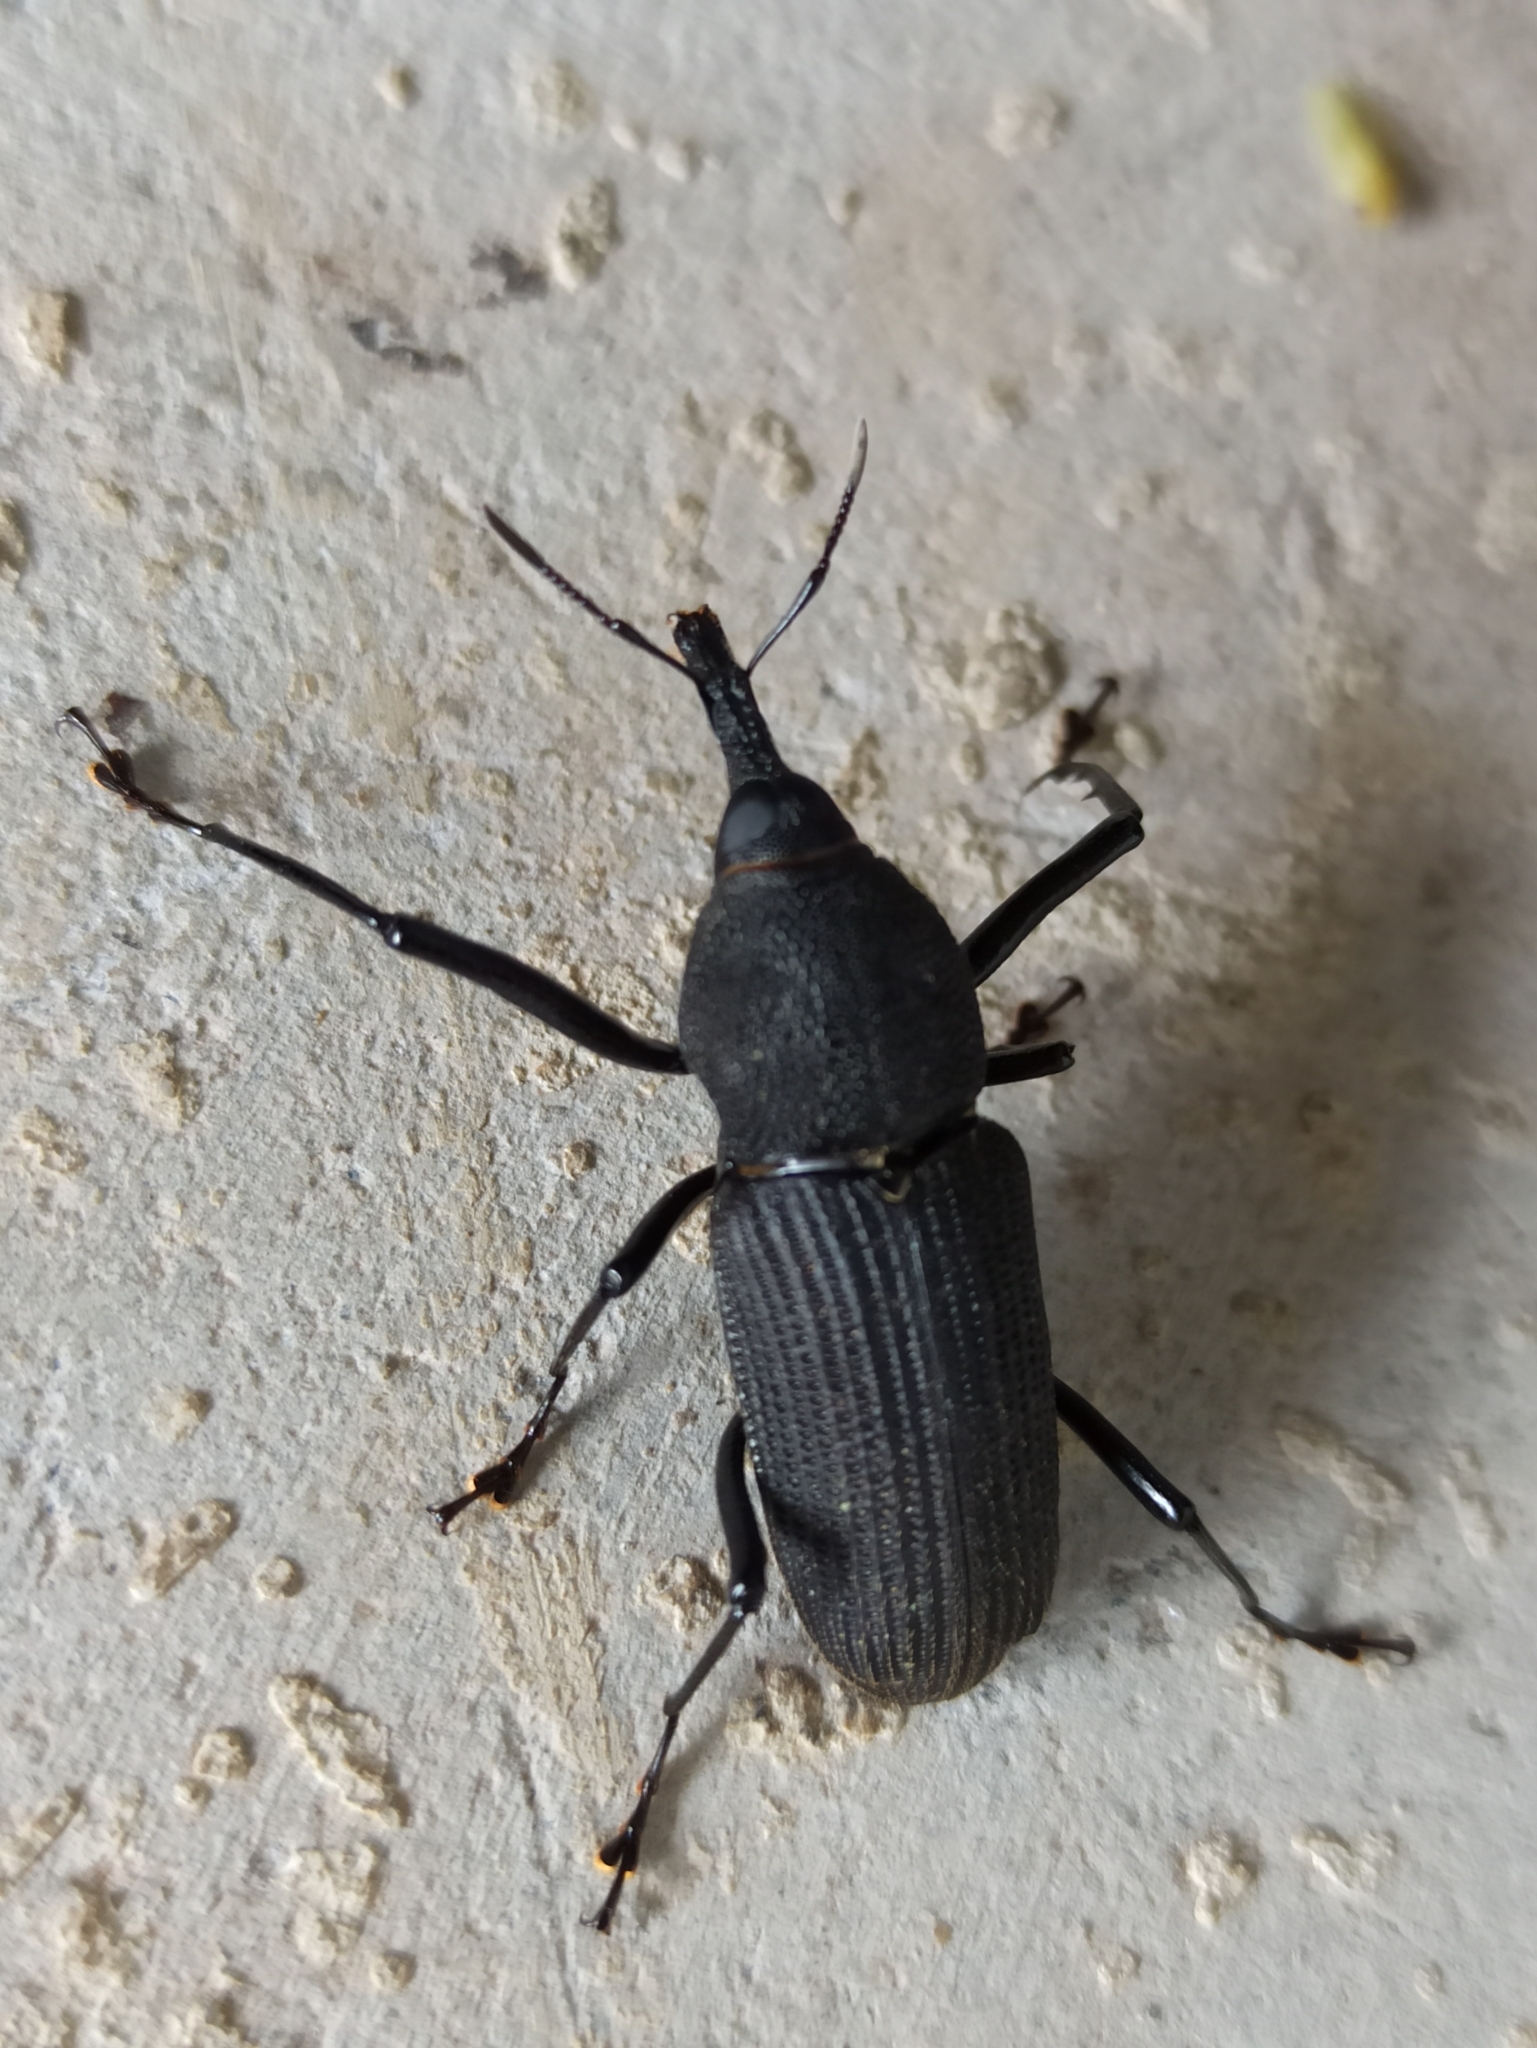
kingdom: Animalia
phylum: Arthropoda
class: Insecta
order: Coleoptera
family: Dryophthoridae
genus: Rhinostomus
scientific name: Rhinostomus barbirostris
